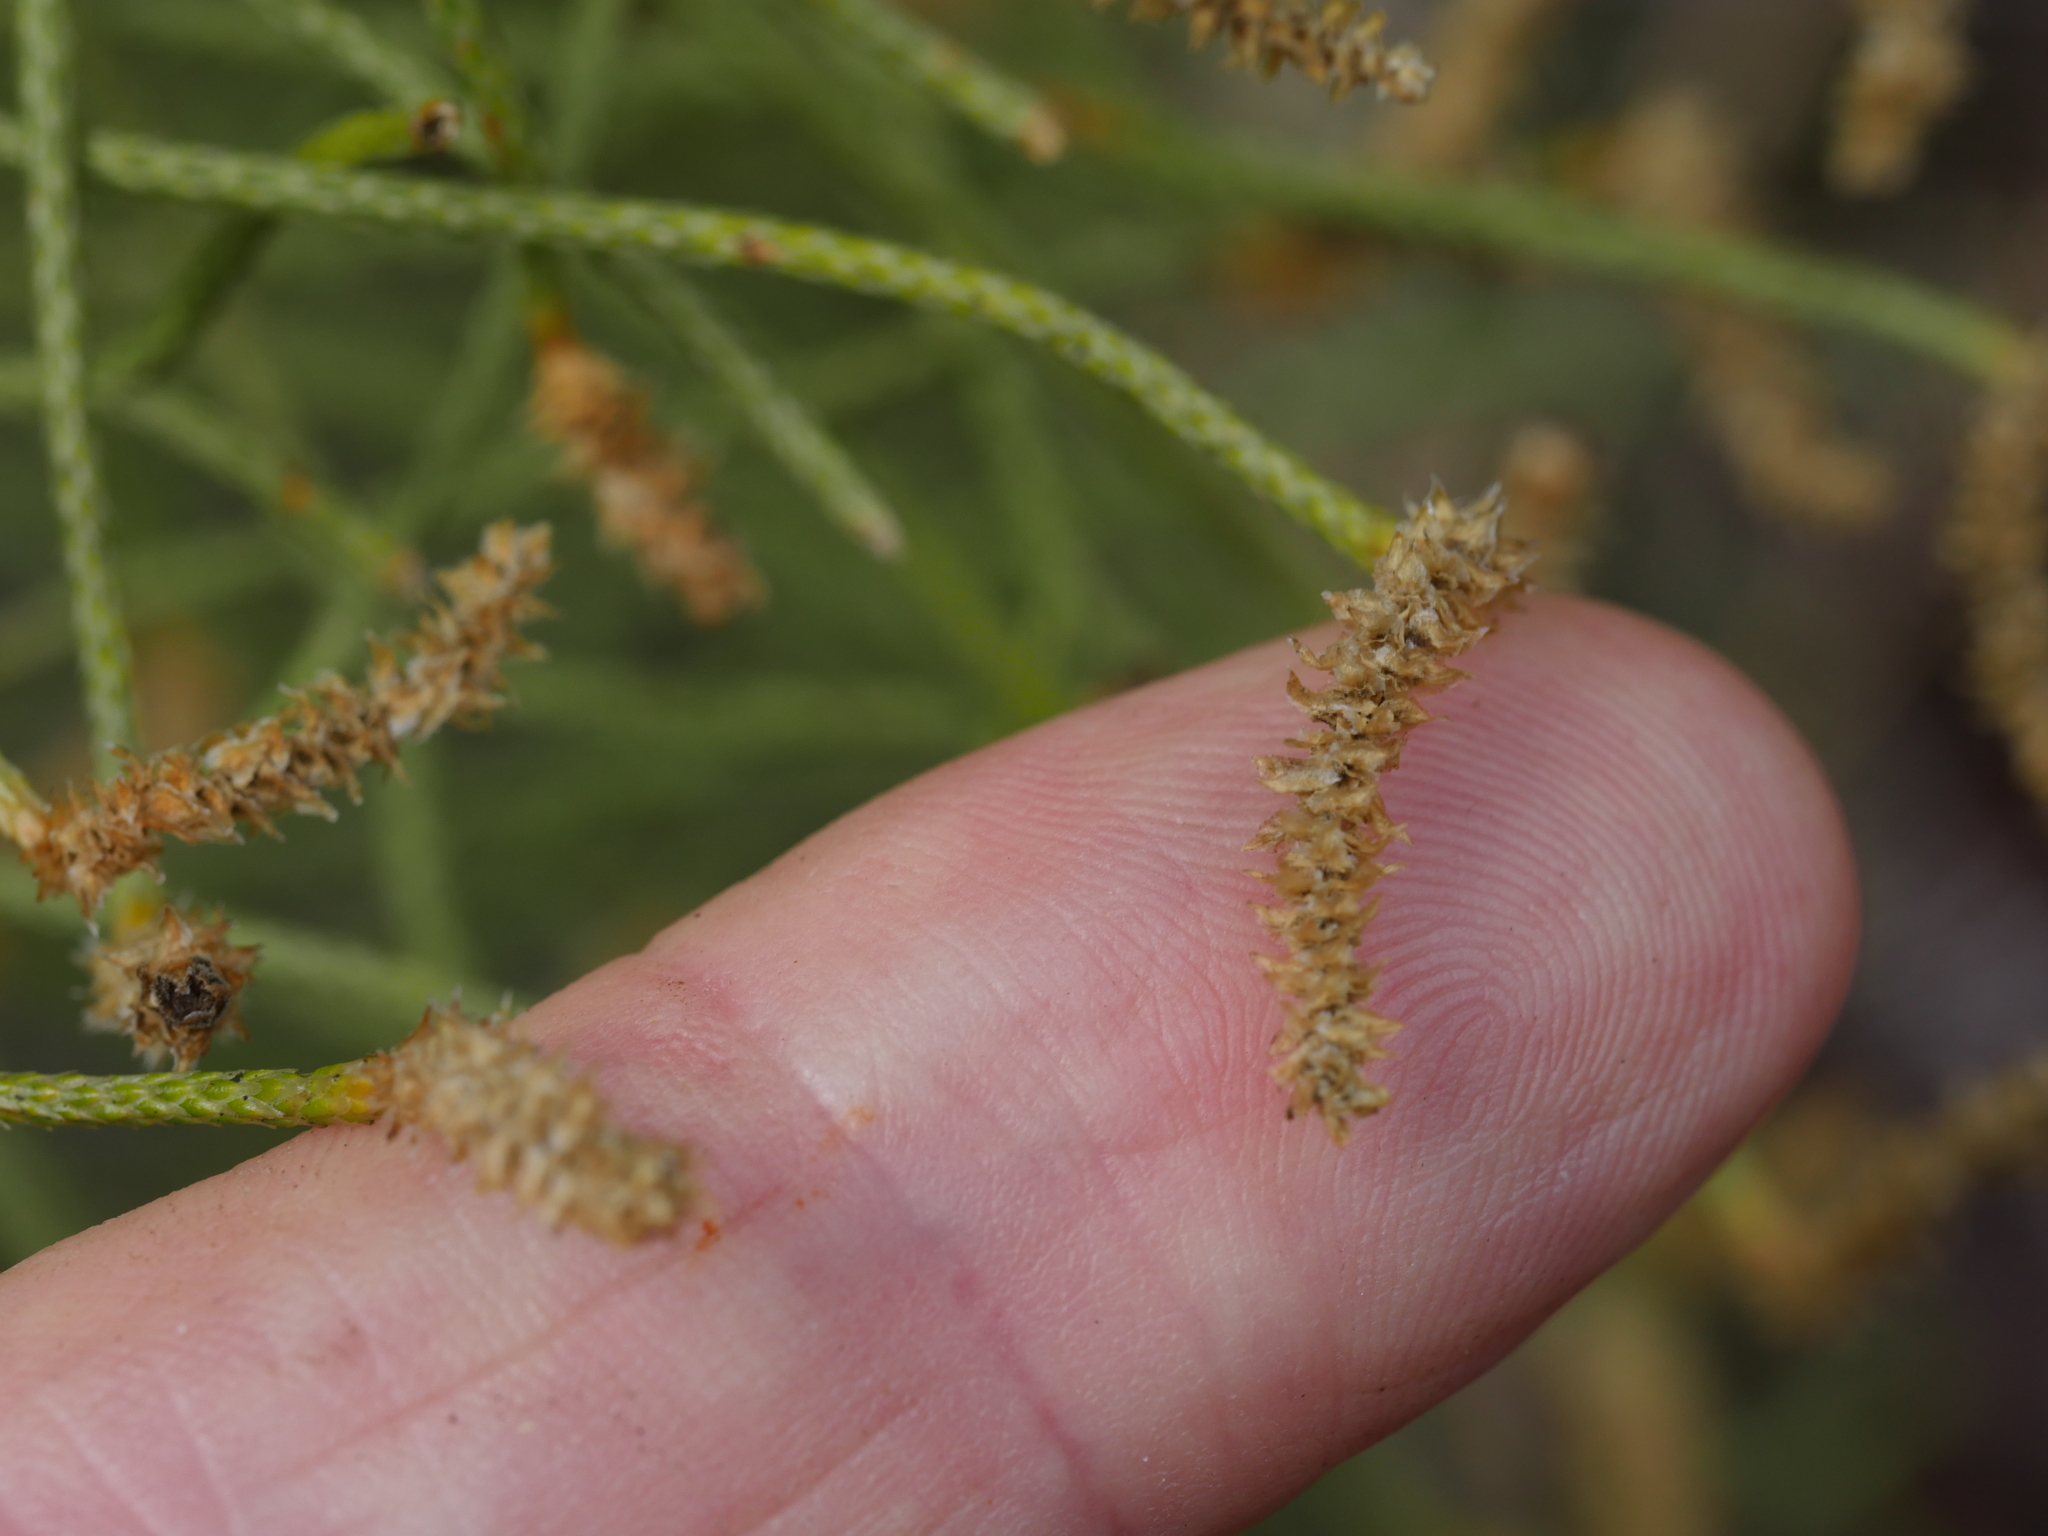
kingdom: Plantae
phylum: Tracheophyta
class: Lycopodiopsida
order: Lycopodiales
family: Lycopodiaceae
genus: Pseudolycopodium
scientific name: Pseudolycopodium densum
